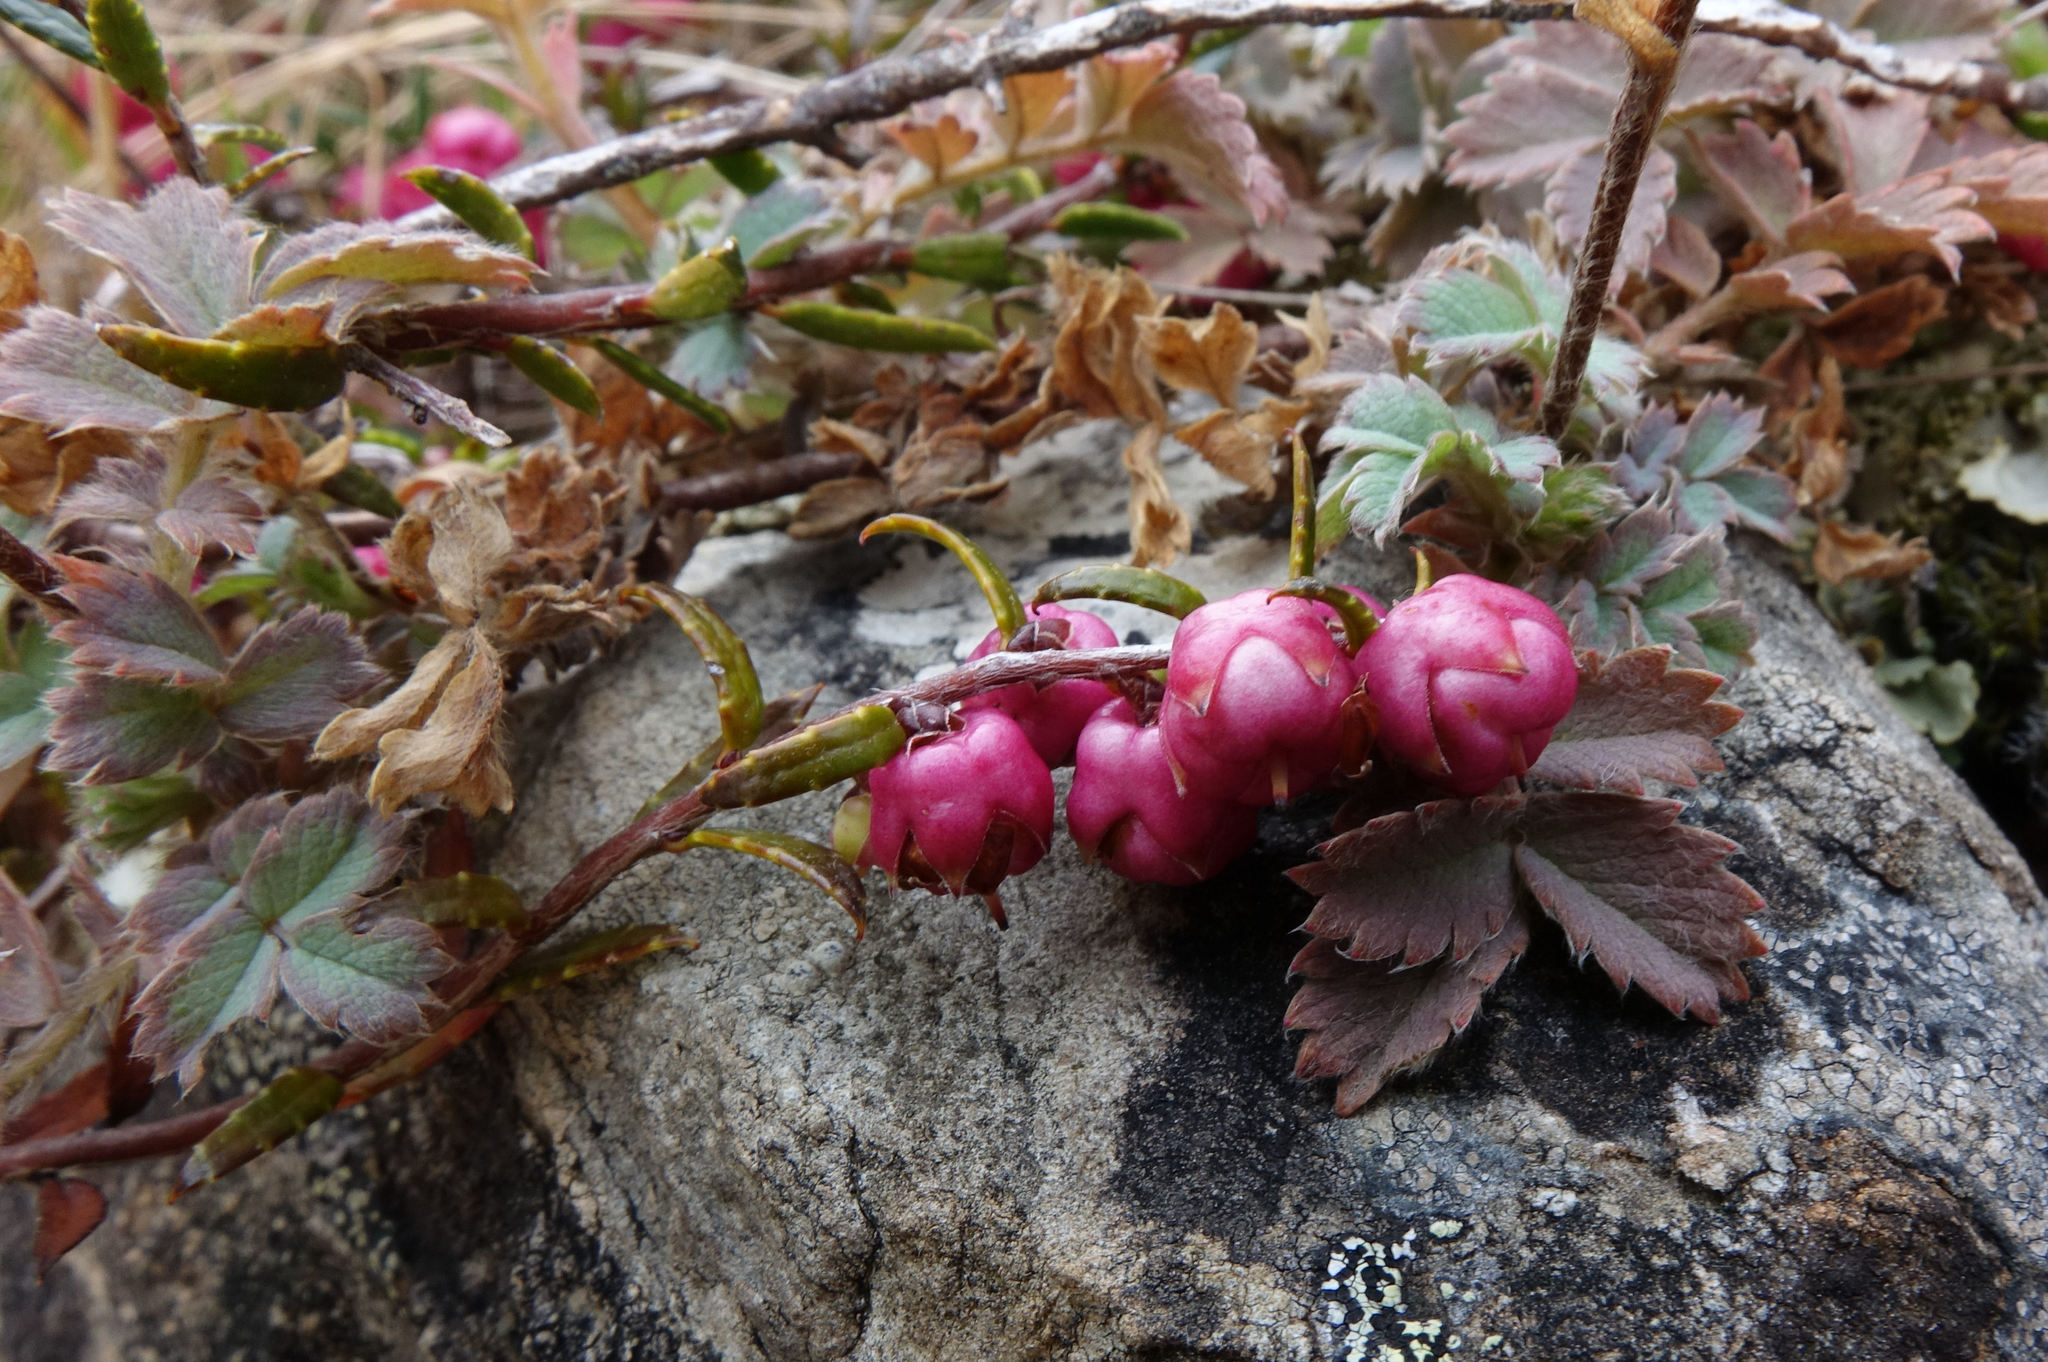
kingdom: Plantae
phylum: Tracheophyta
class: Magnoliopsida
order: Ericales
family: Ericaceae
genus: Gaultheria
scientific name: Gaultheria macrostigma
